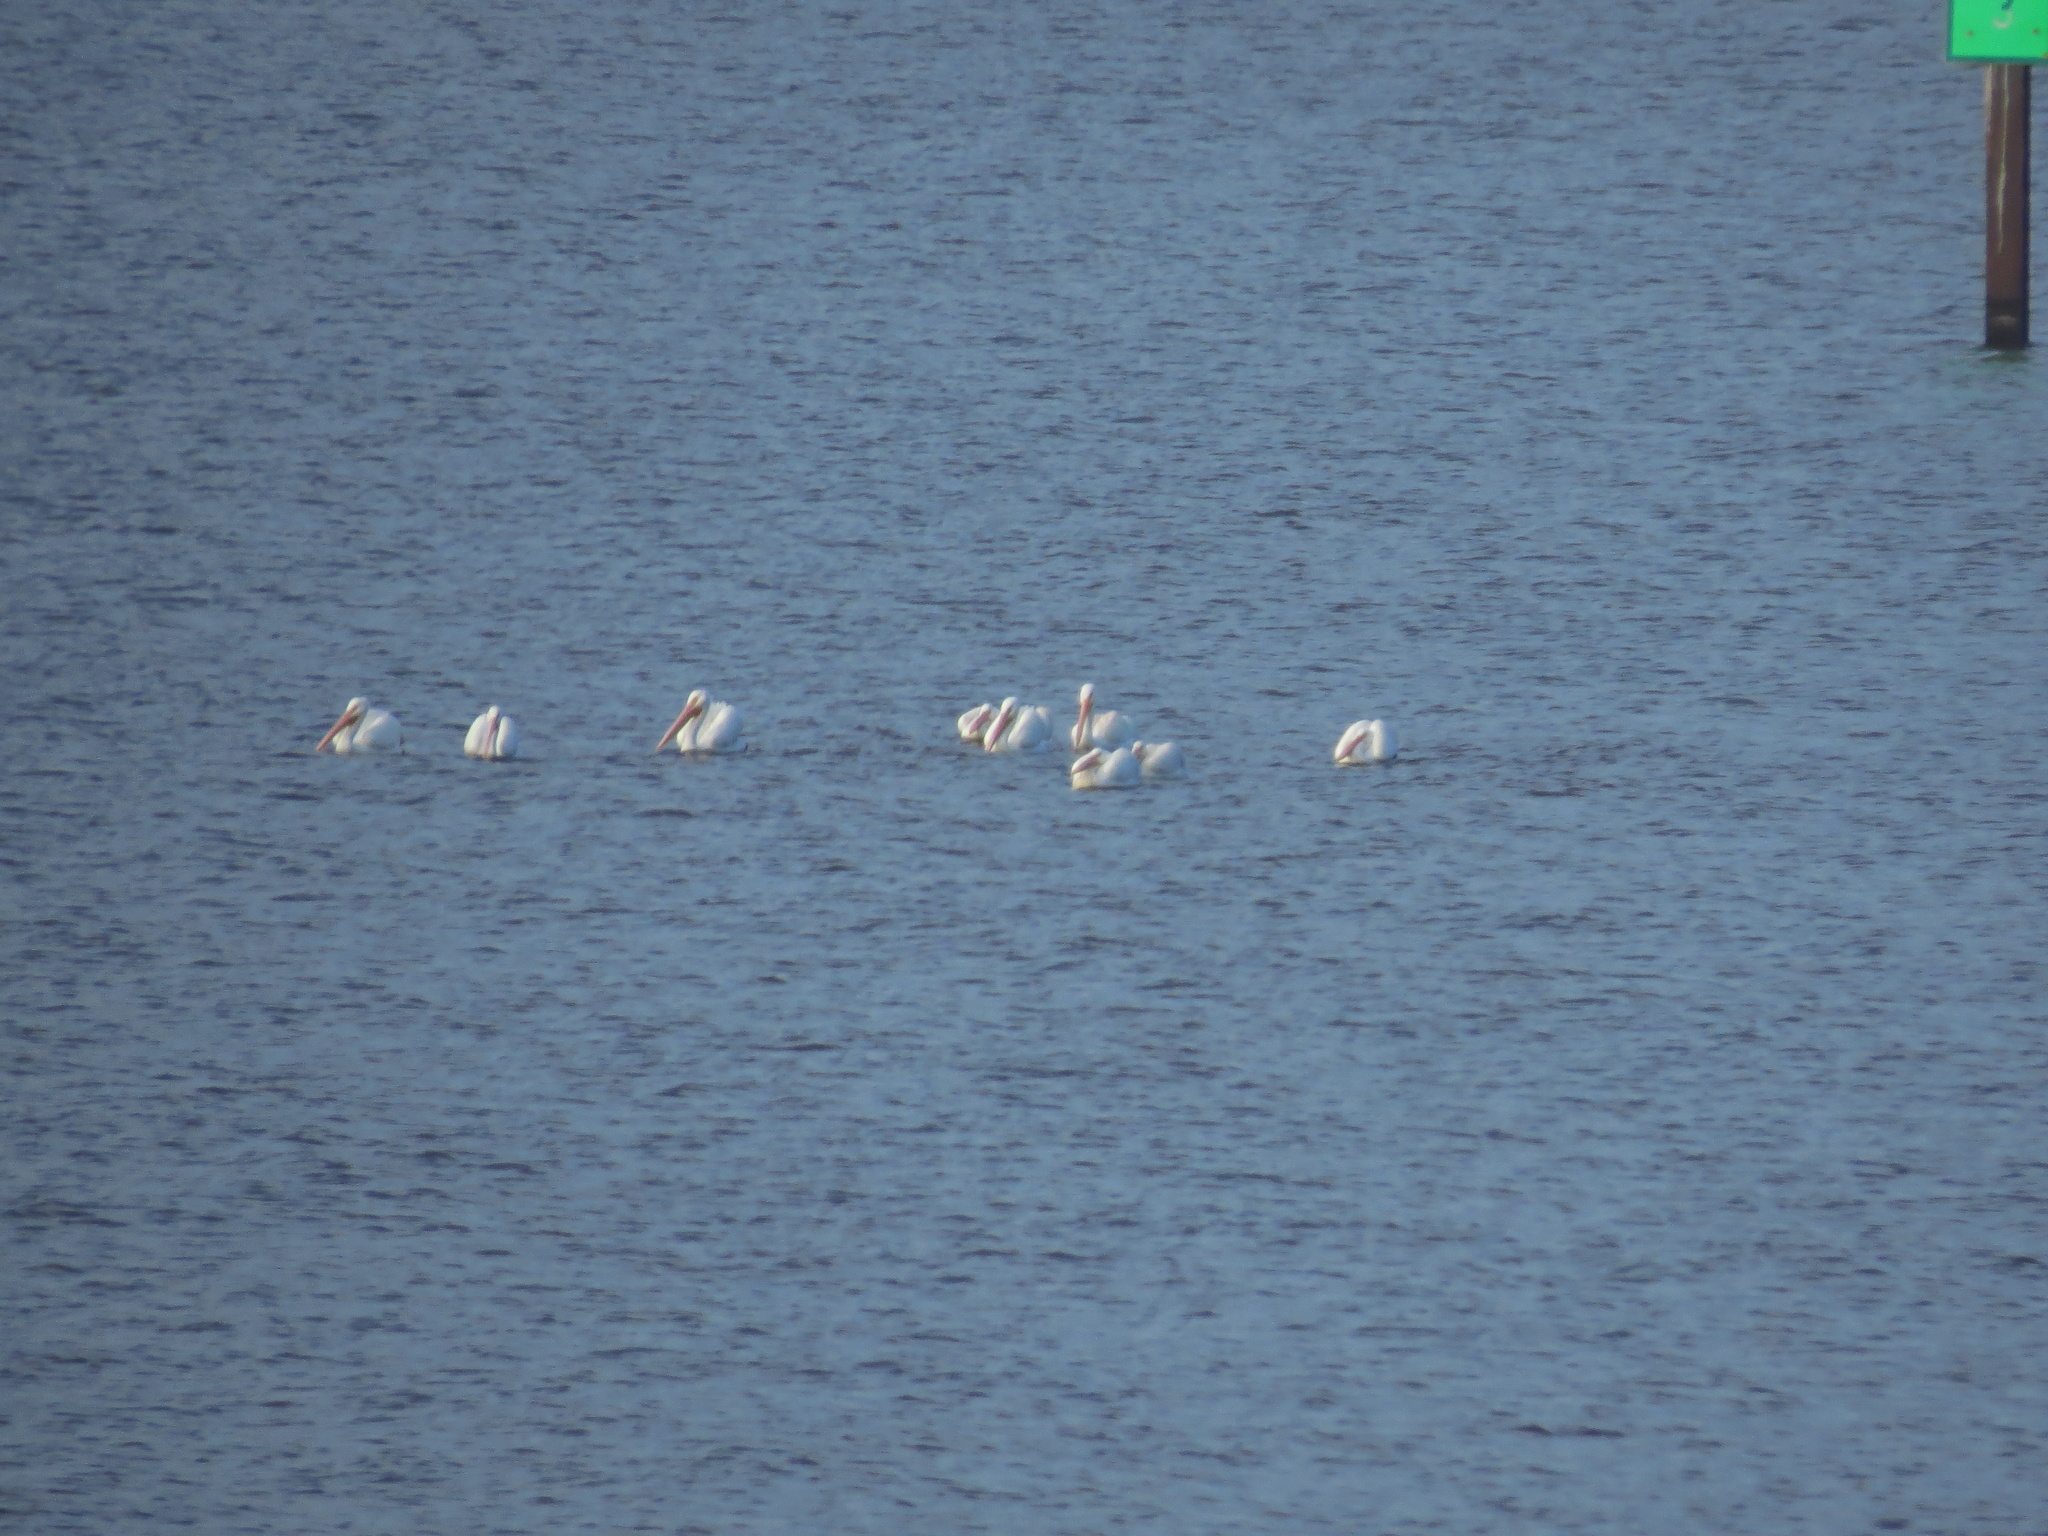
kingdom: Animalia
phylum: Chordata
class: Aves
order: Pelecaniformes
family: Pelecanidae
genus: Pelecanus
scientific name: Pelecanus erythrorhynchos
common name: American white pelican
